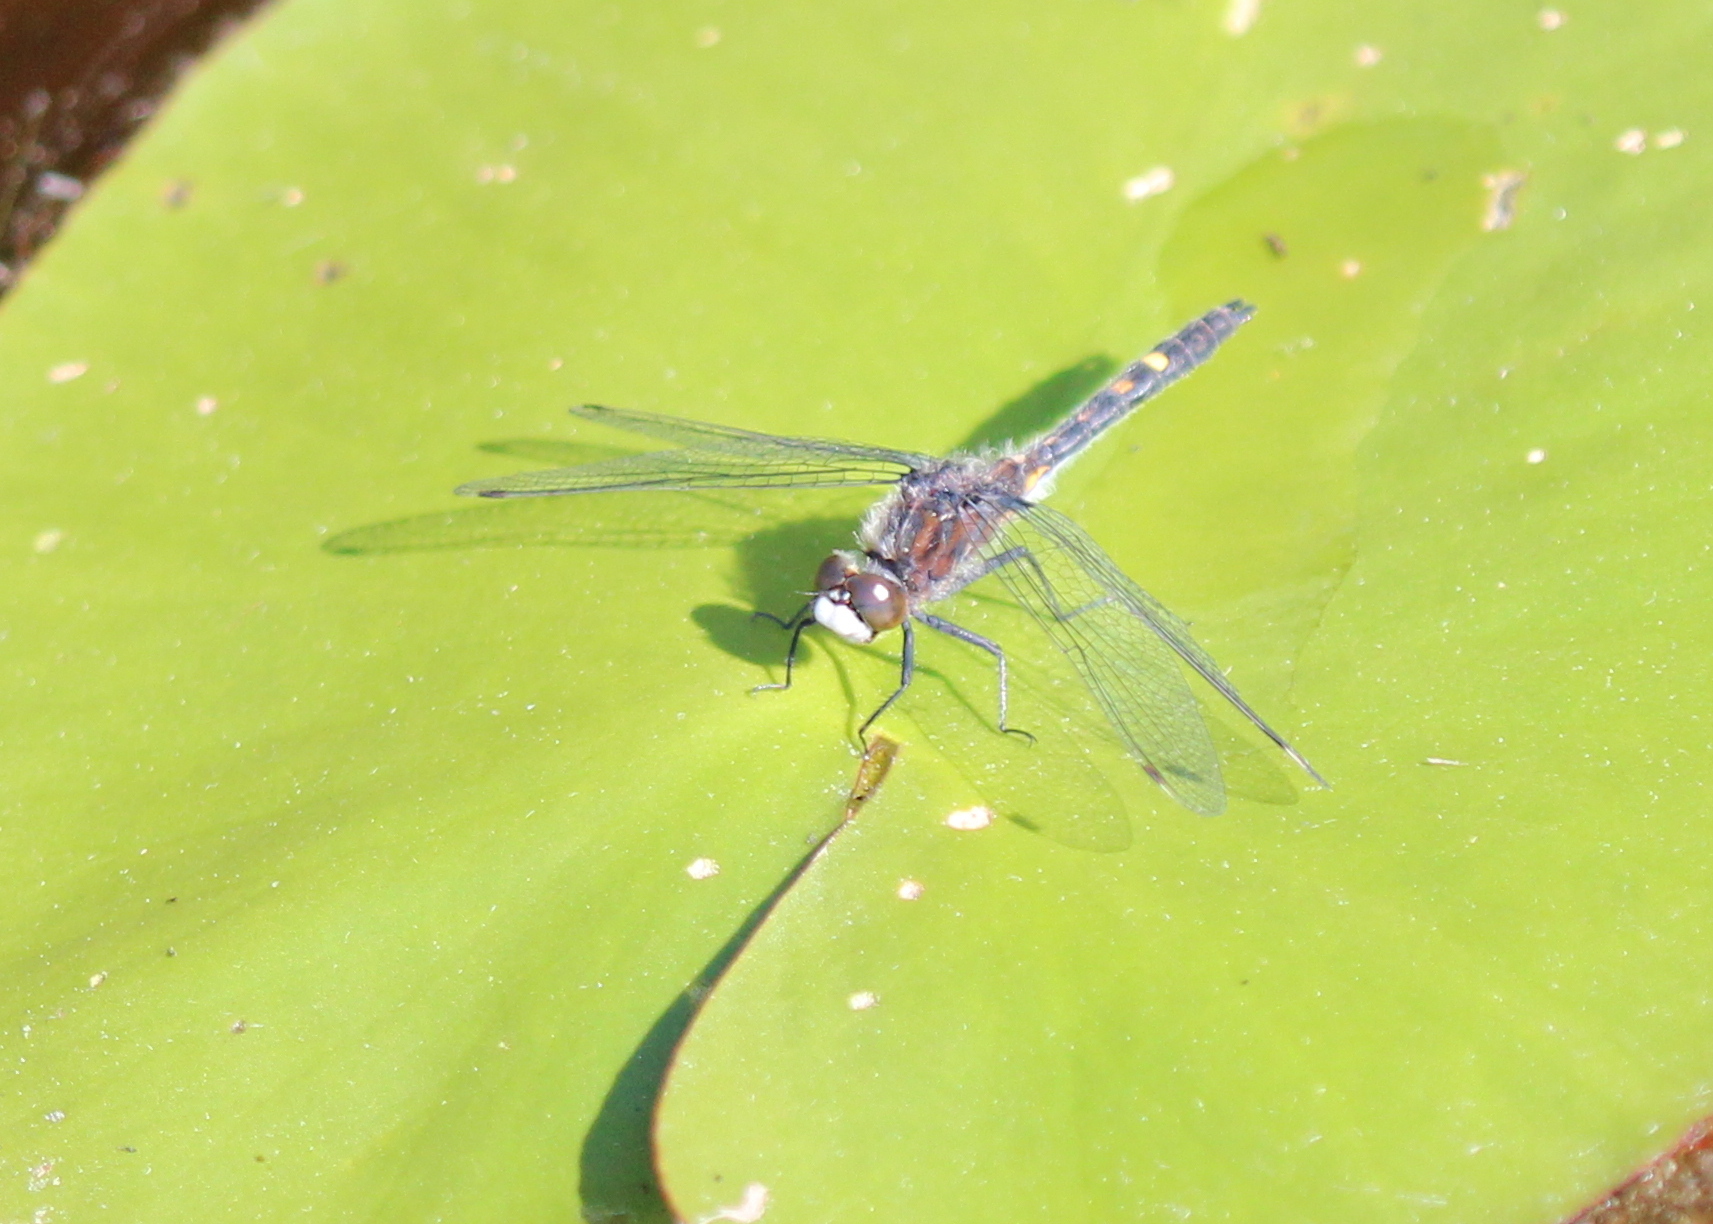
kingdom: Animalia
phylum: Arthropoda
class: Insecta
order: Odonata
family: Libellulidae
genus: Leucorrhinia
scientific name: Leucorrhinia intacta
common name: Dot-tailed whiteface
